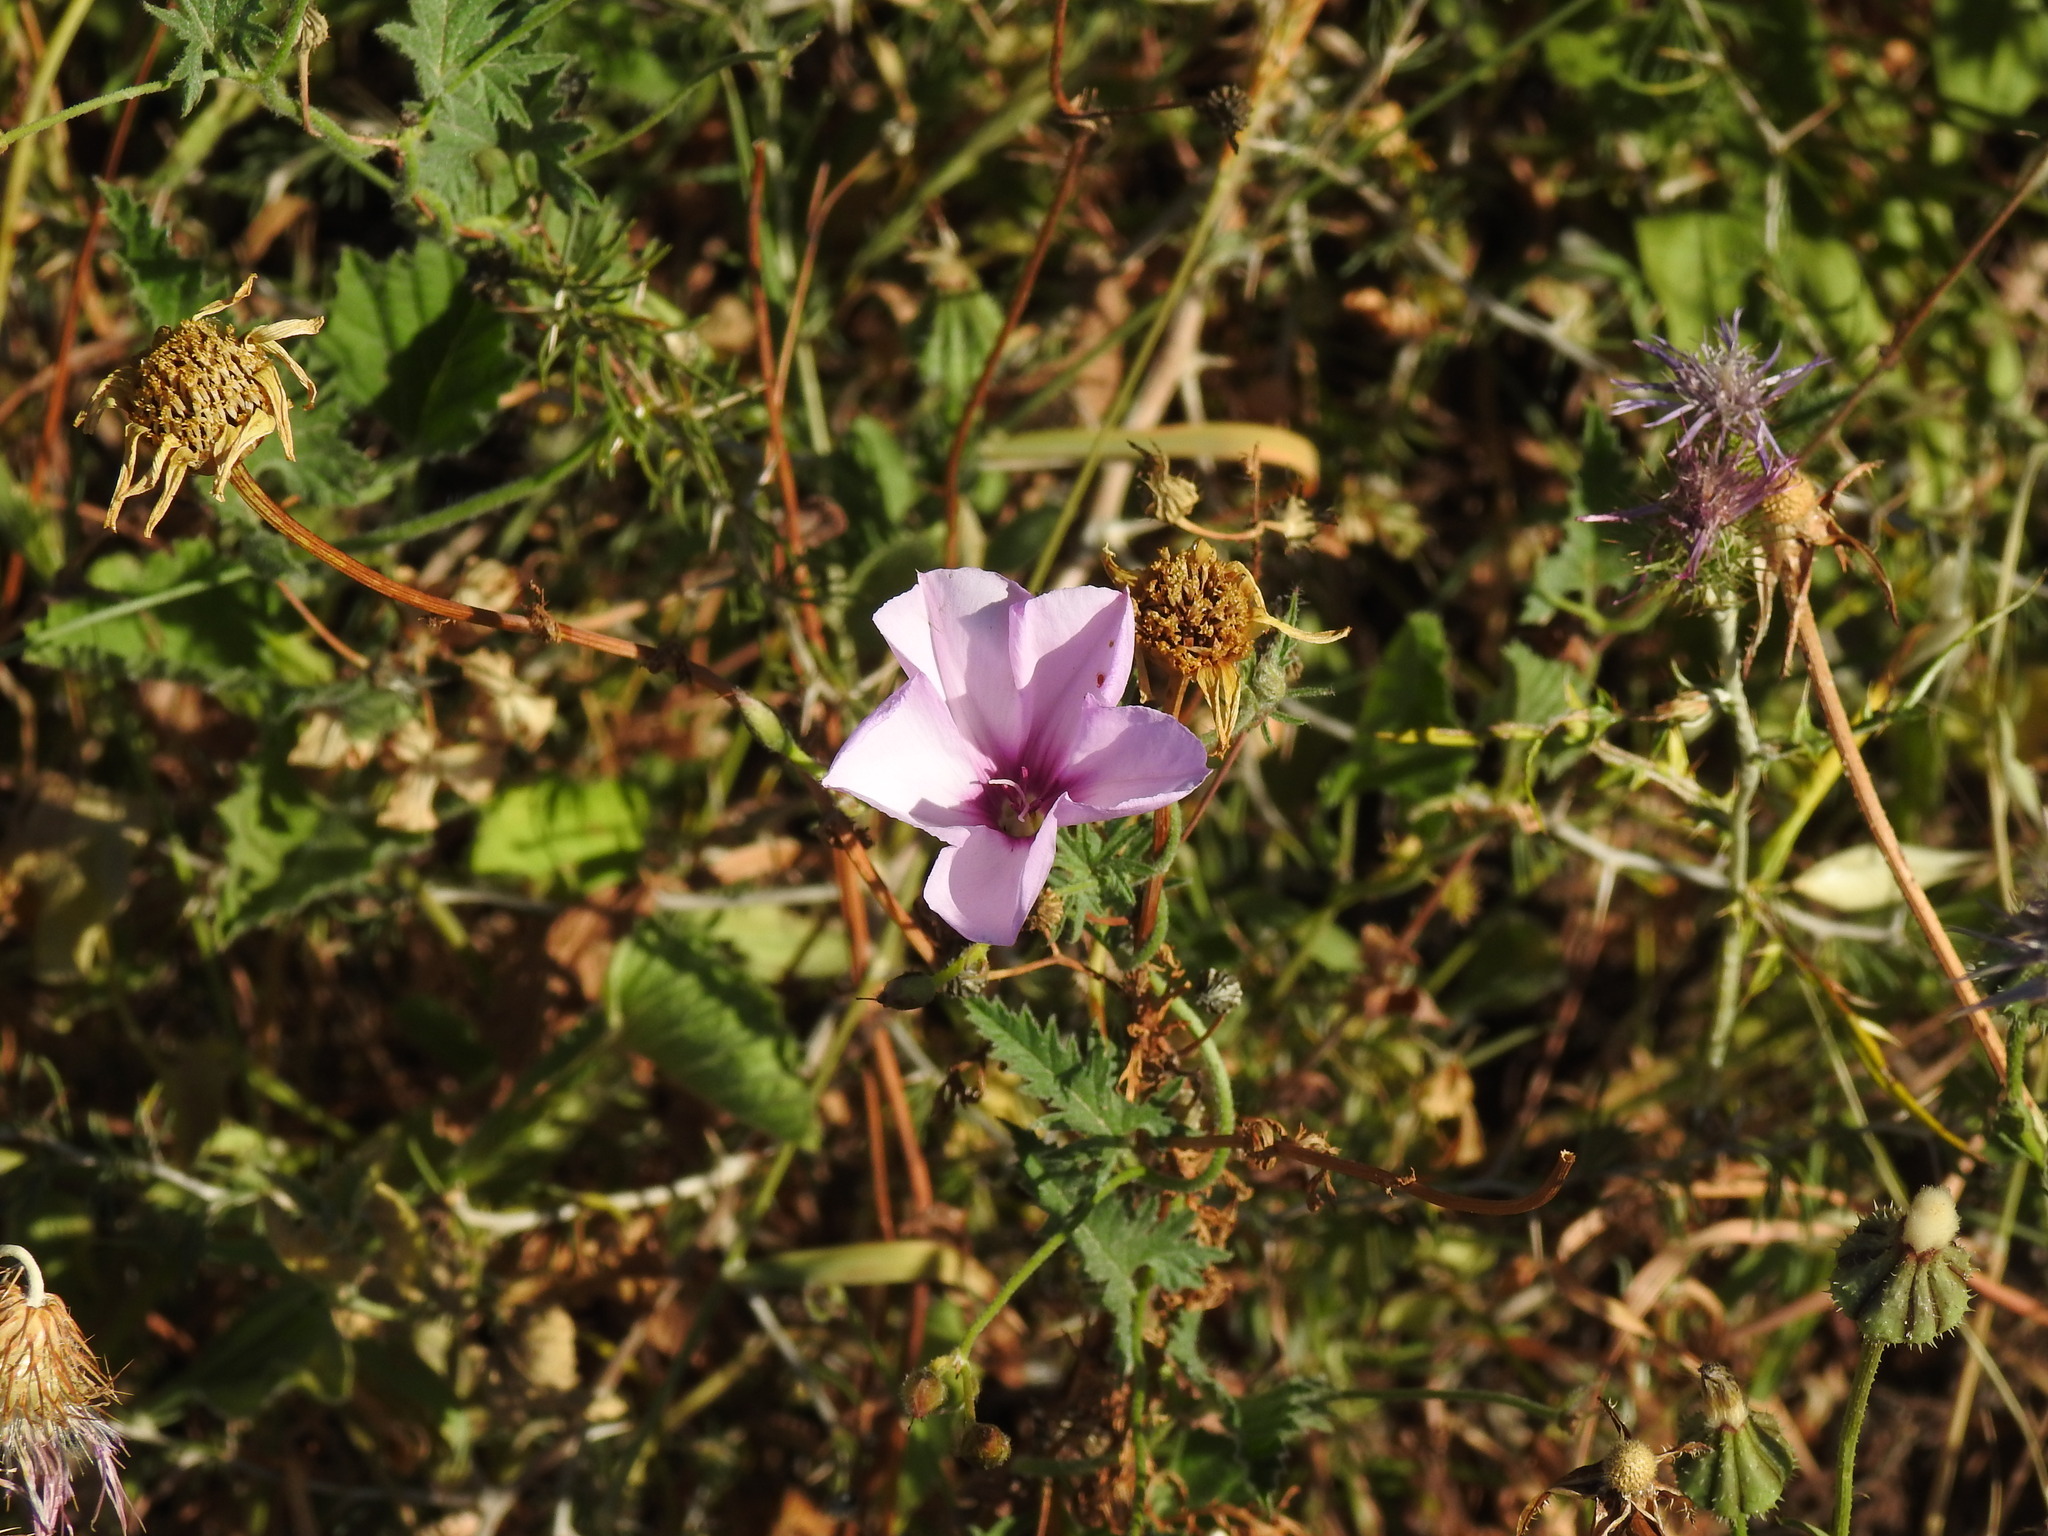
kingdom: Plantae
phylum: Tracheophyta
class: Magnoliopsida
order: Solanales
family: Convolvulaceae
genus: Convolvulus
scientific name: Convolvulus althaeoides
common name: Mallow bindweed
